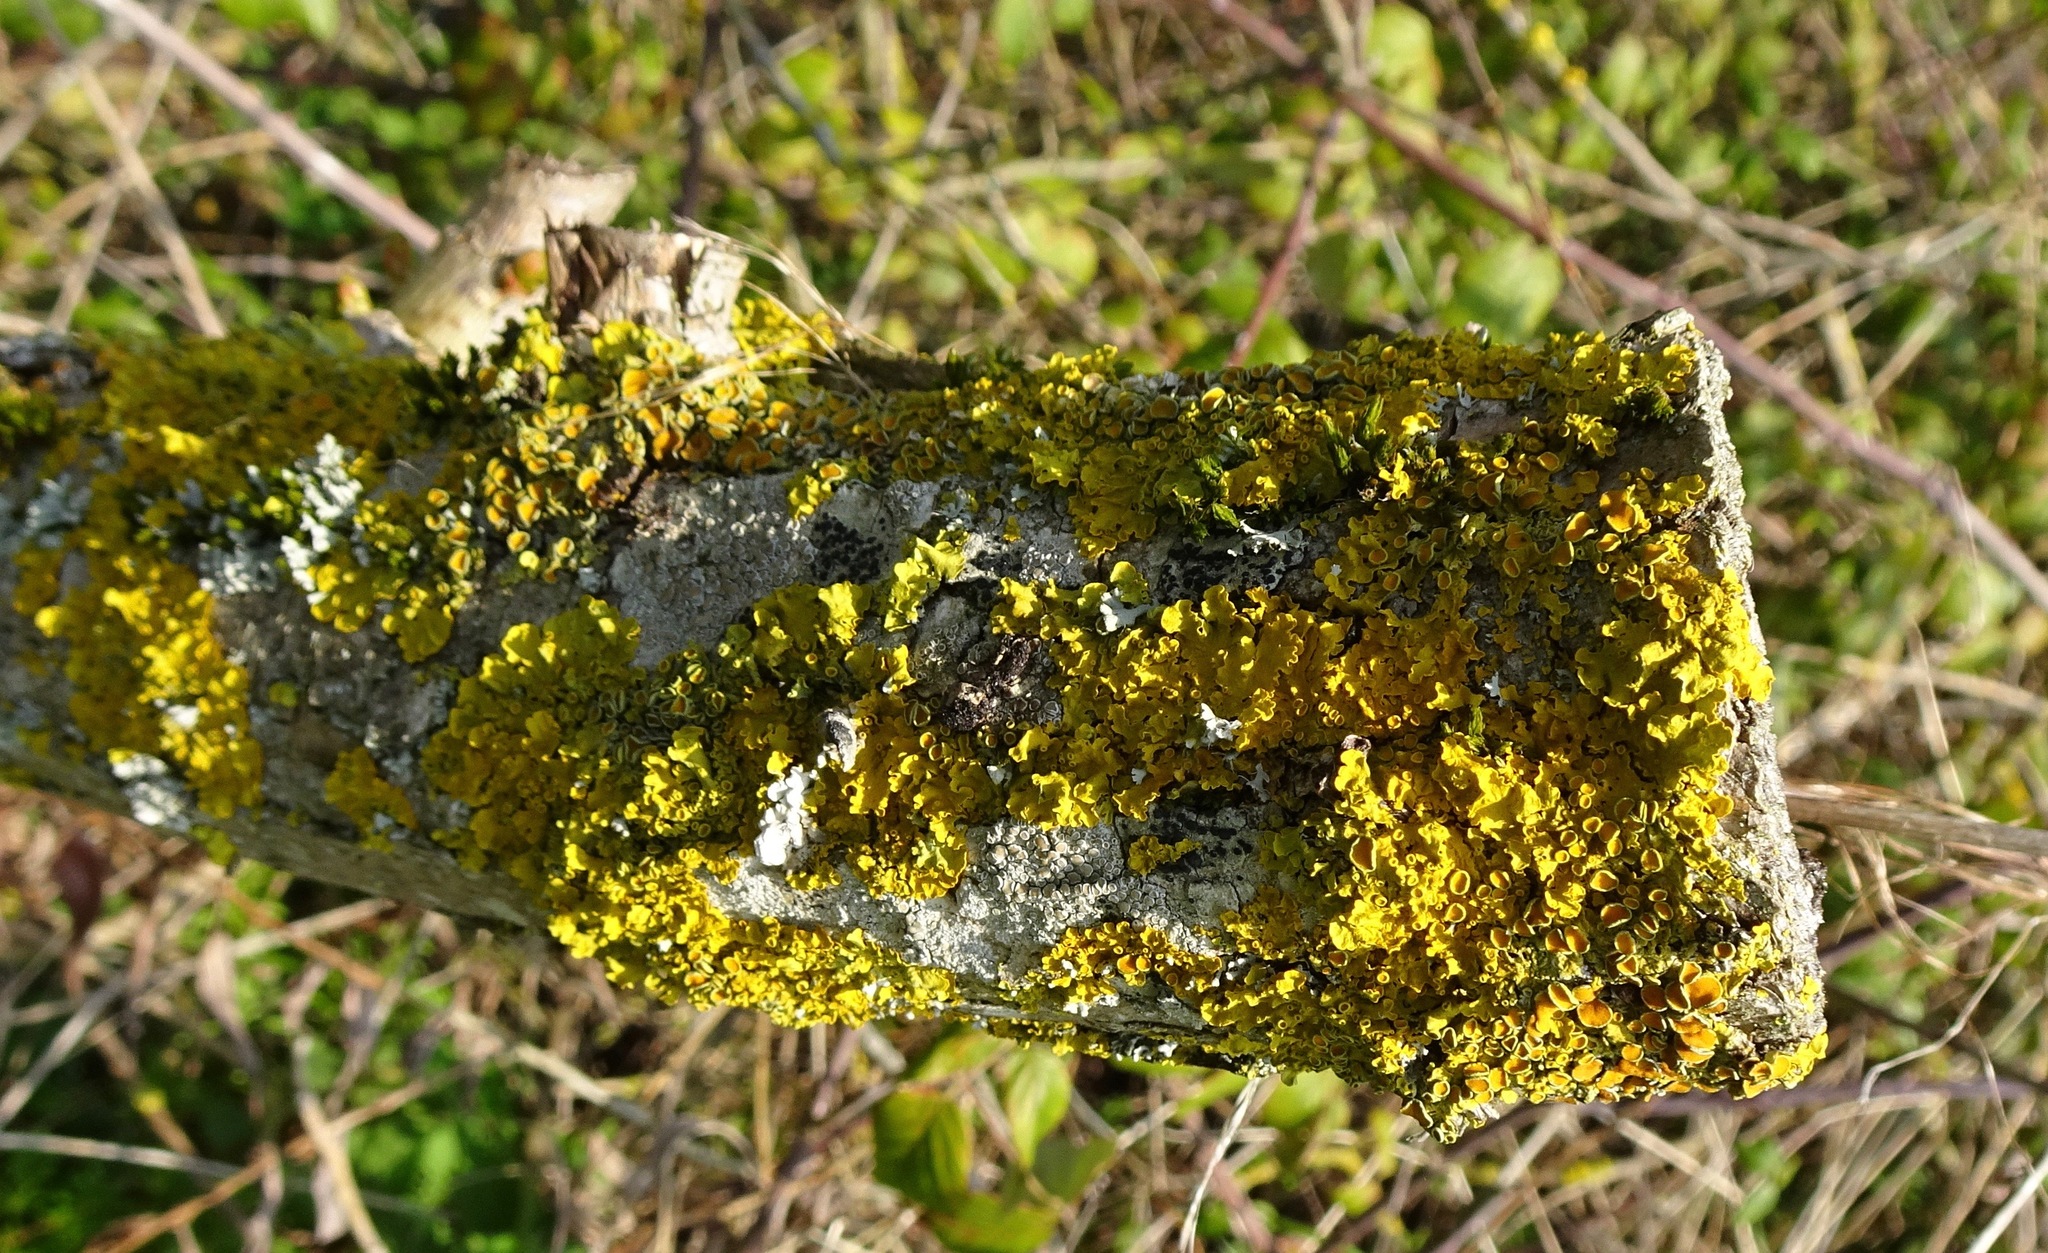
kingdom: Fungi
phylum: Ascomycota
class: Lecanoromycetes
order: Teloschistales
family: Teloschistaceae
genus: Xanthoria
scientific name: Xanthoria parietina
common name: Common orange lichen
